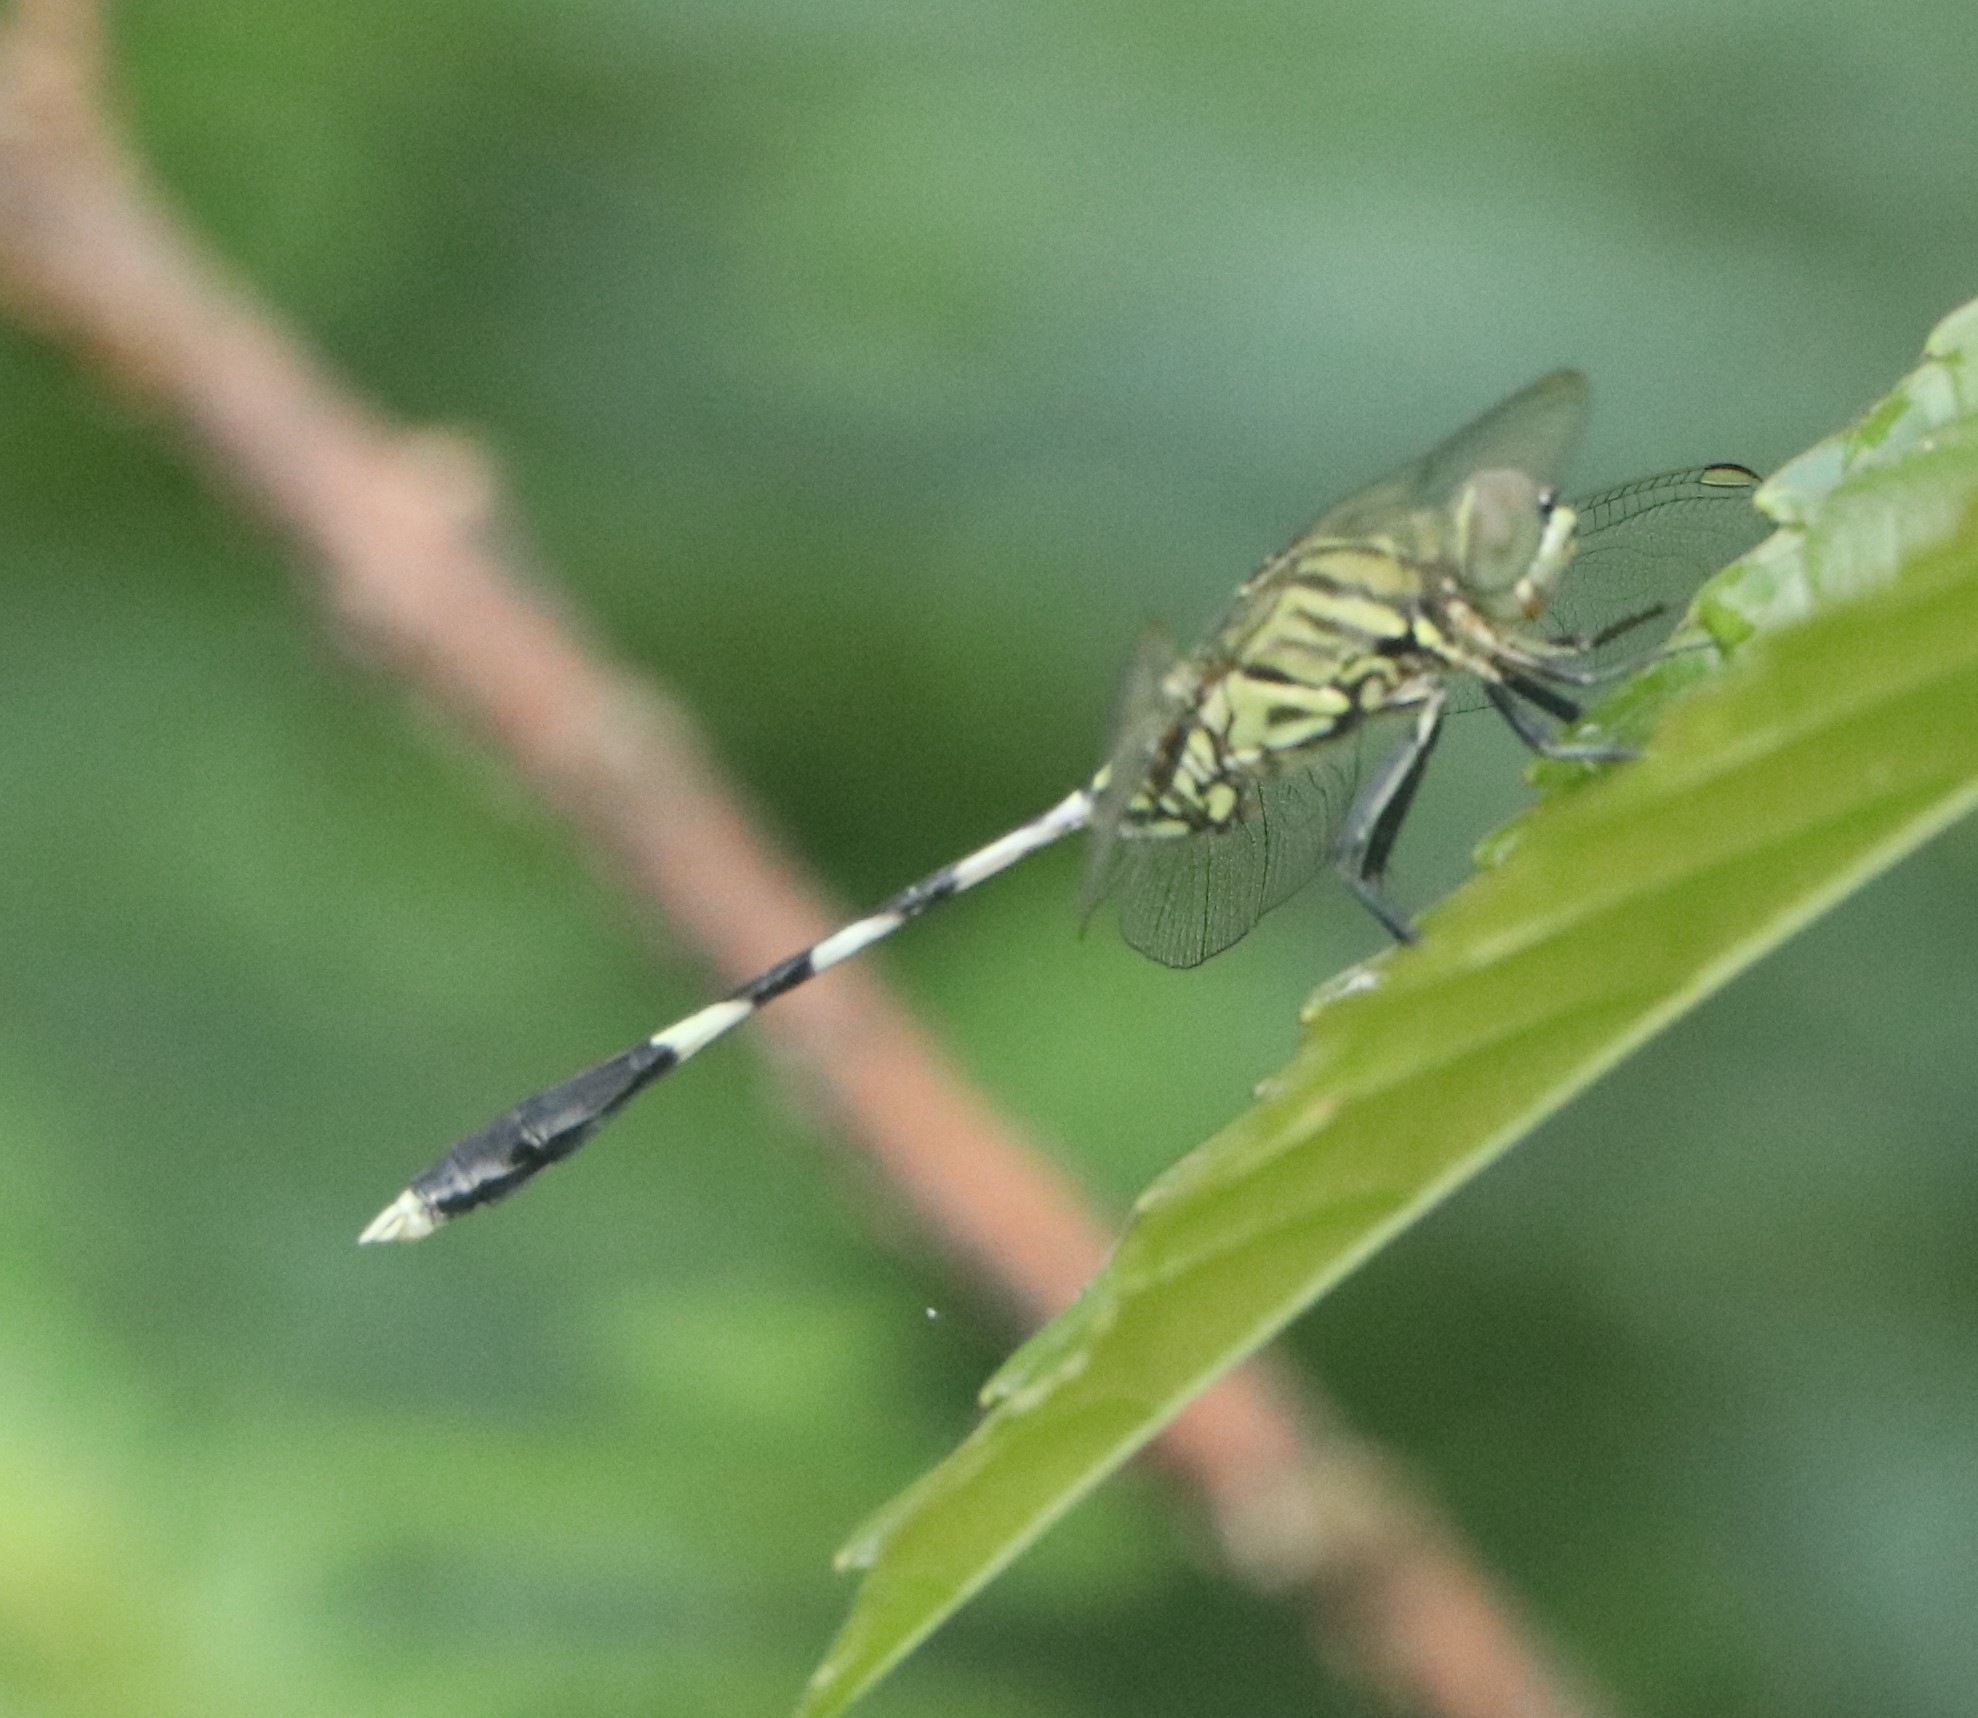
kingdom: Animalia
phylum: Arthropoda
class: Insecta
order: Odonata
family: Libellulidae
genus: Orthetrum
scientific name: Orthetrum sabina
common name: Slender skimmer
